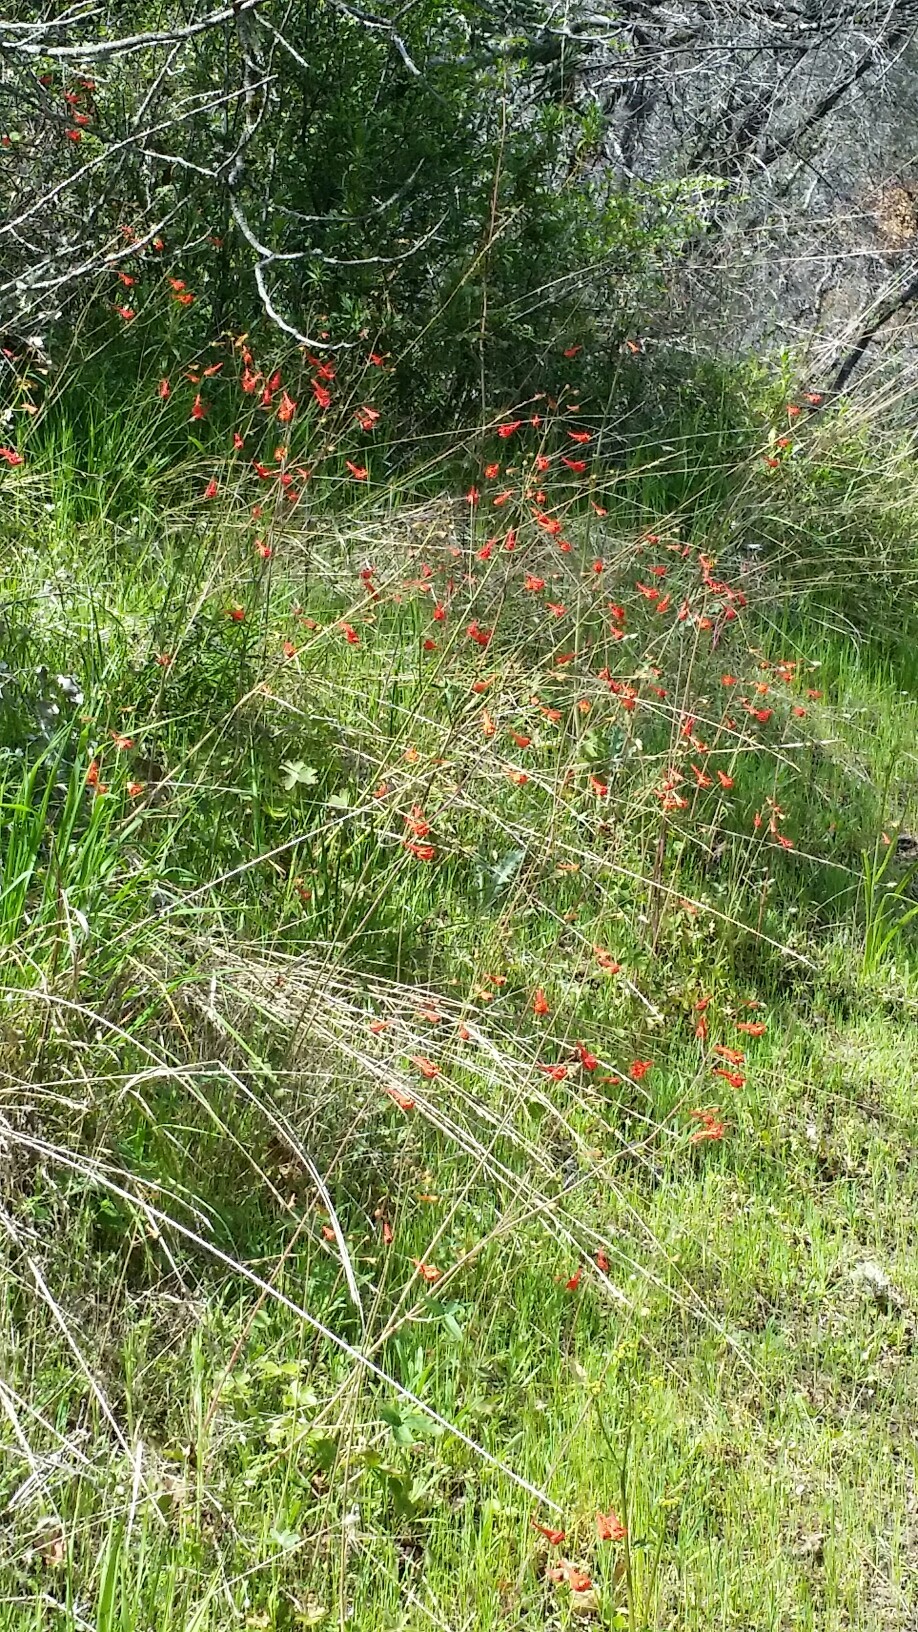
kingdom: Plantae
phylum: Tracheophyta
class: Magnoliopsida
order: Ranunculales
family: Ranunculaceae
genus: Delphinium
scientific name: Delphinium nudicaule
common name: Red larkspur
